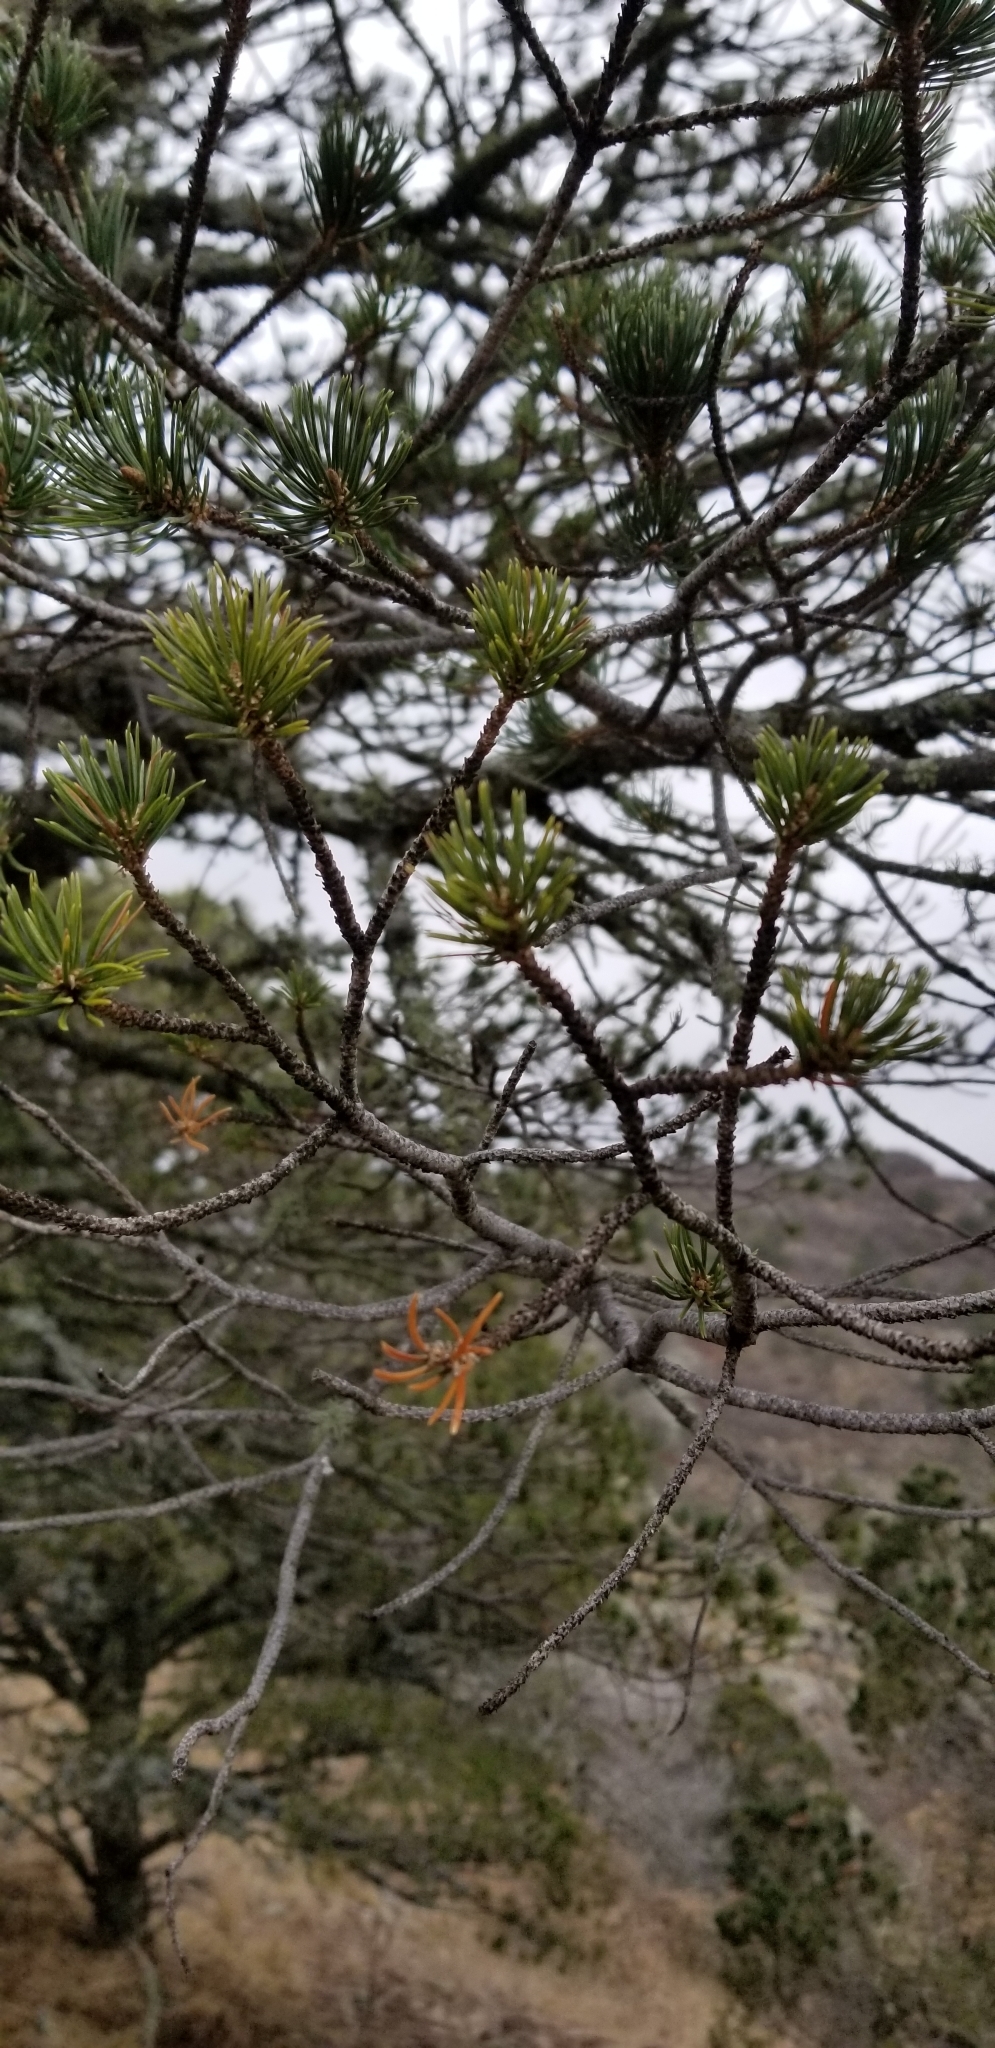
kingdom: Plantae
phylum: Tracheophyta
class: Pinopsida
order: Pinales
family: Pinaceae
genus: Pinus
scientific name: Pinus cembroides
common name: Mexican nut pine
